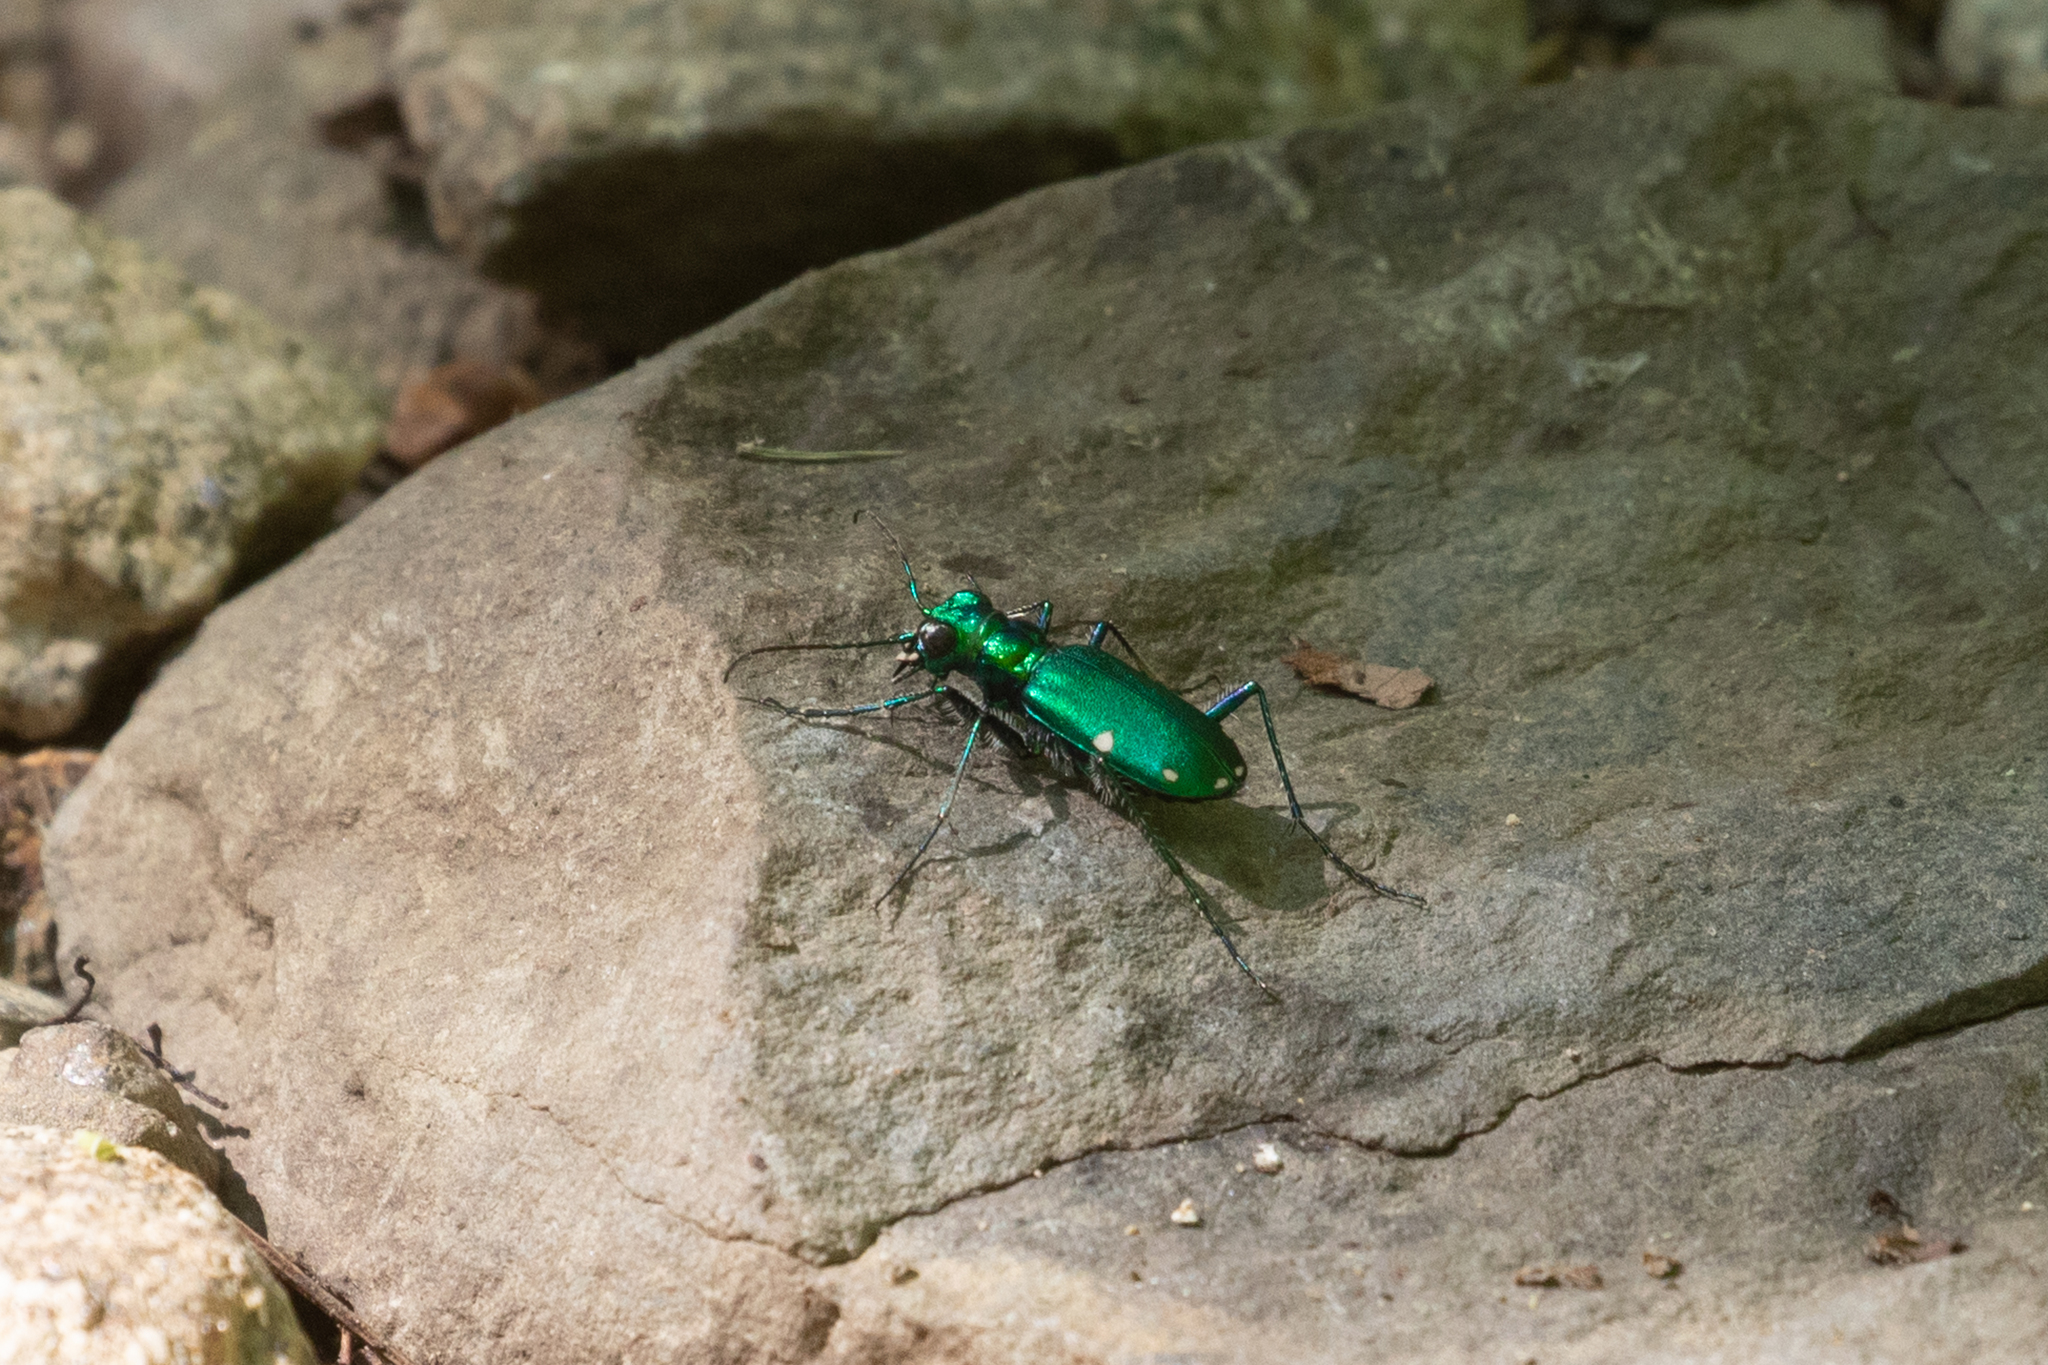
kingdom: Animalia
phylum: Arthropoda
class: Insecta
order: Coleoptera
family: Carabidae
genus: Cicindela
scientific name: Cicindela sexguttata
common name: Six-spotted tiger beetle
